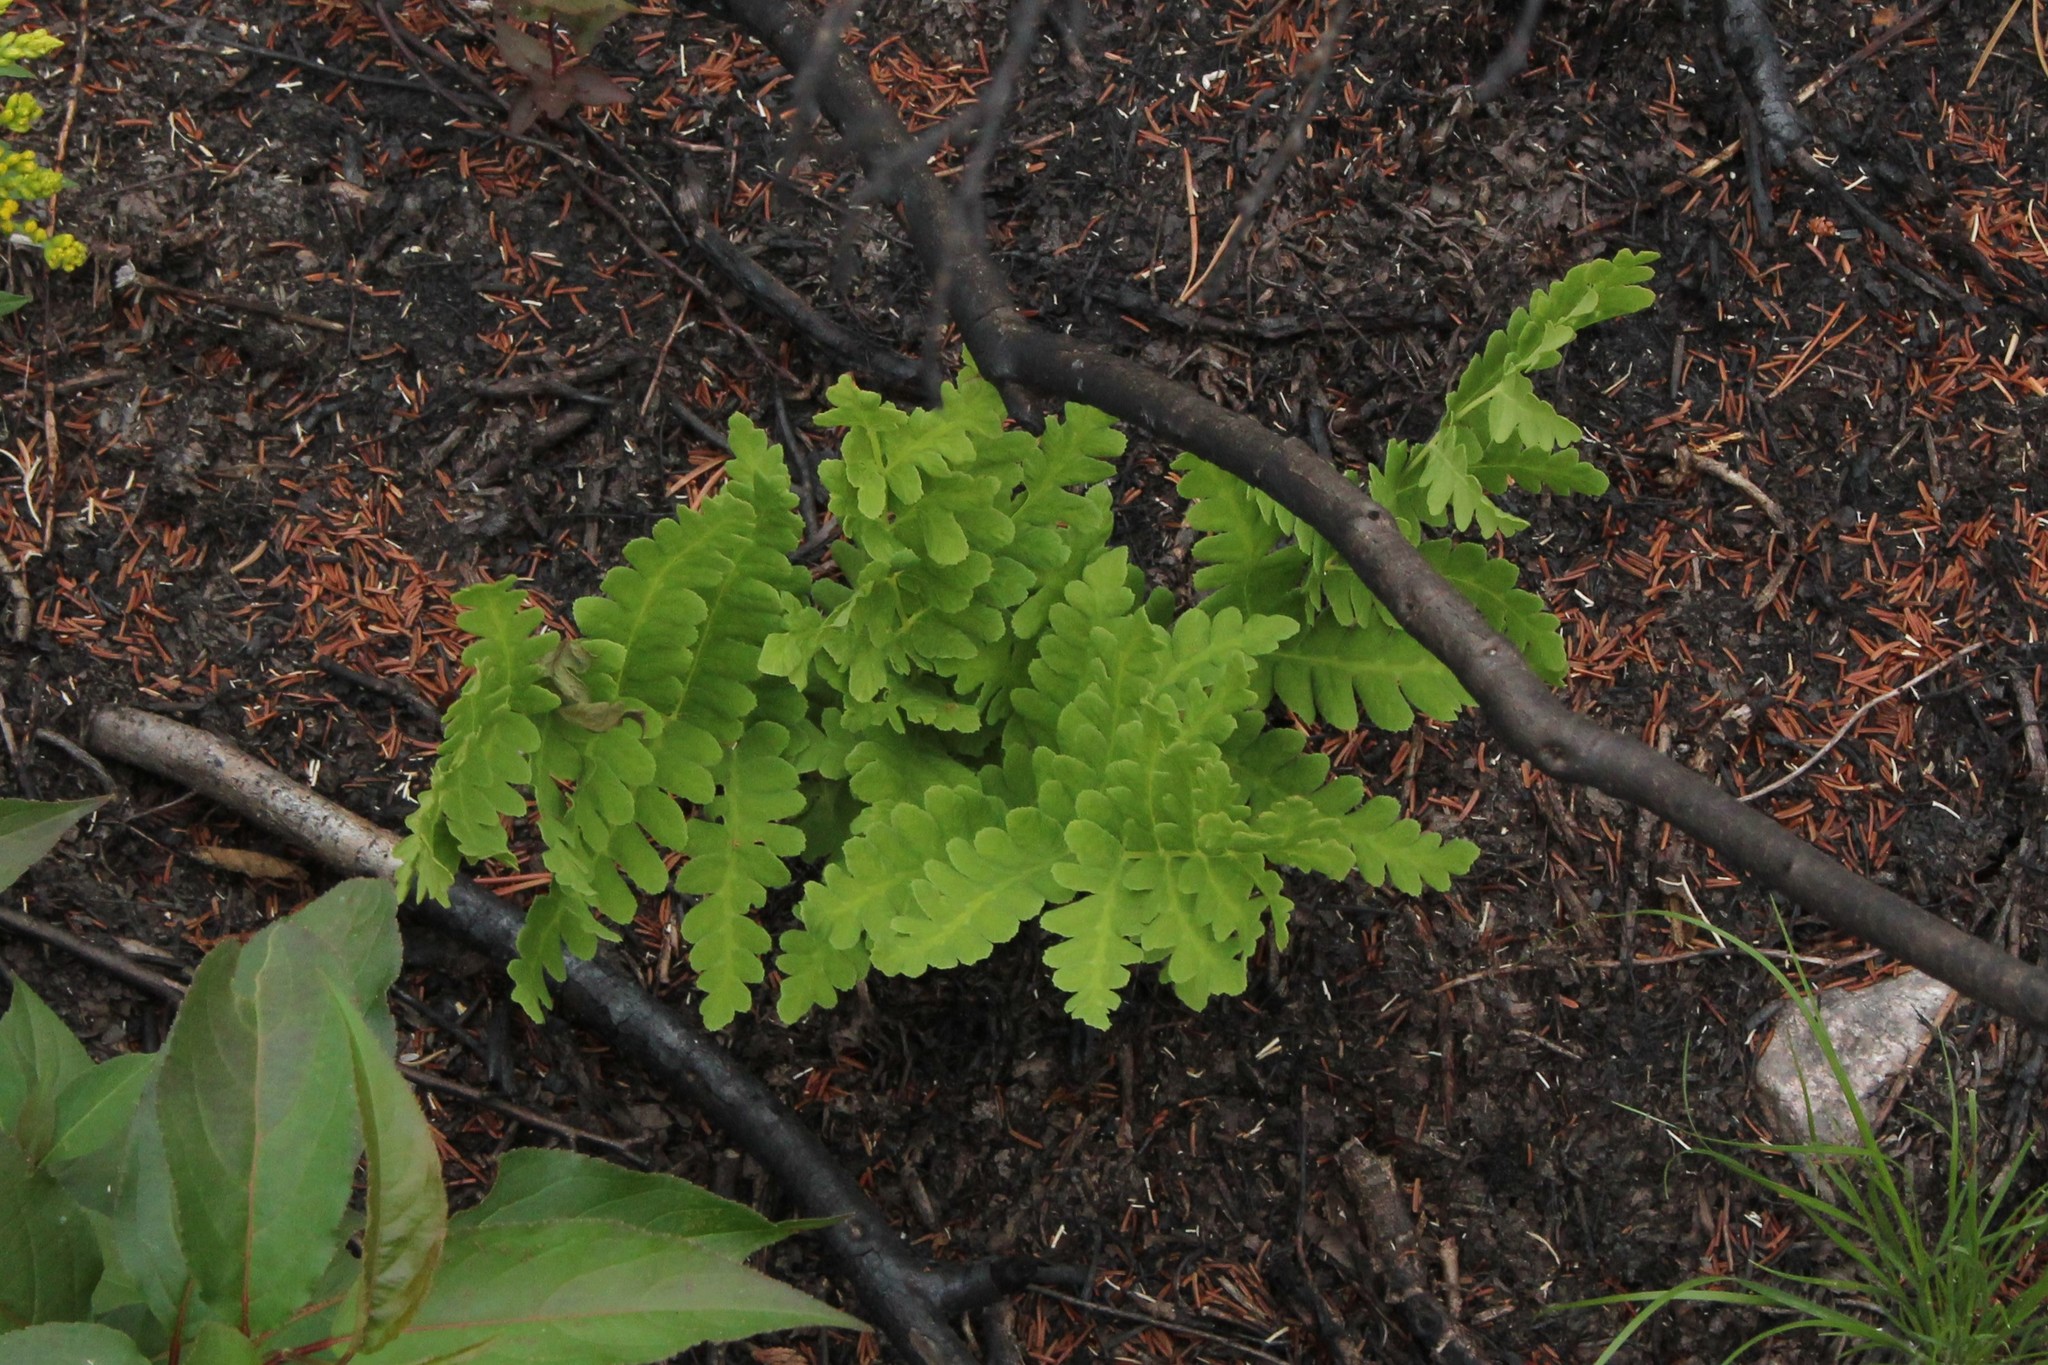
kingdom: Plantae
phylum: Tracheophyta
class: Polypodiopsida
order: Osmundales
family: Osmundaceae
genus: Claytosmunda
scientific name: Claytosmunda claytoniana
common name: Clayton's fern
